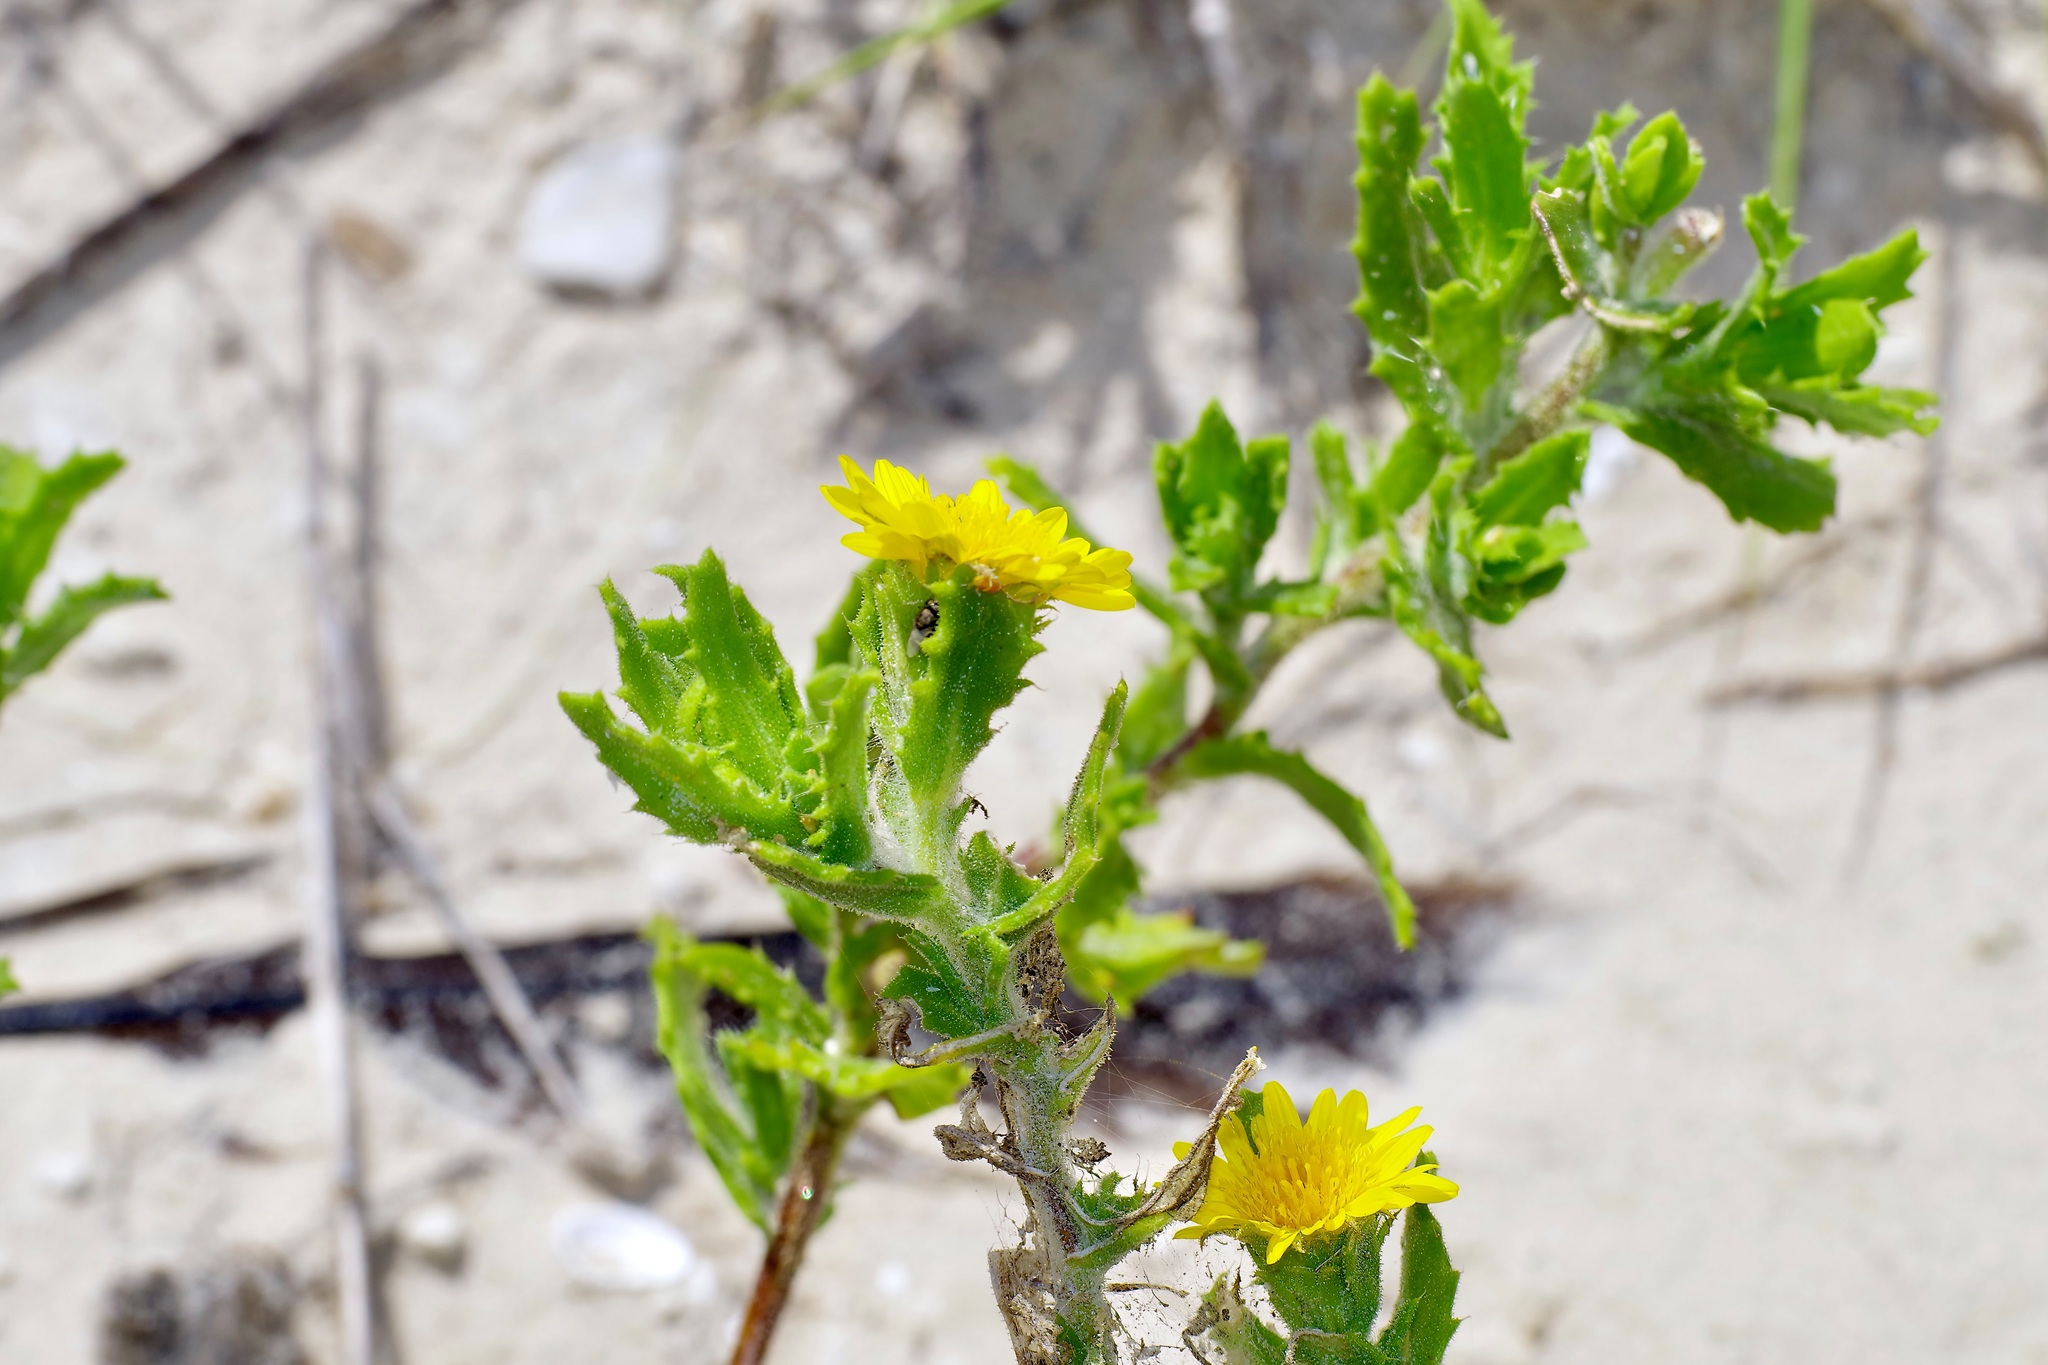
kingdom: Plantae
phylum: Tracheophyta
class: Magnoliopsida
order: Asterales
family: Asteraceae
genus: Rayjacksonia
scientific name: Rayjacksonia phyllocephala
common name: Gulf coast camphor daisy
